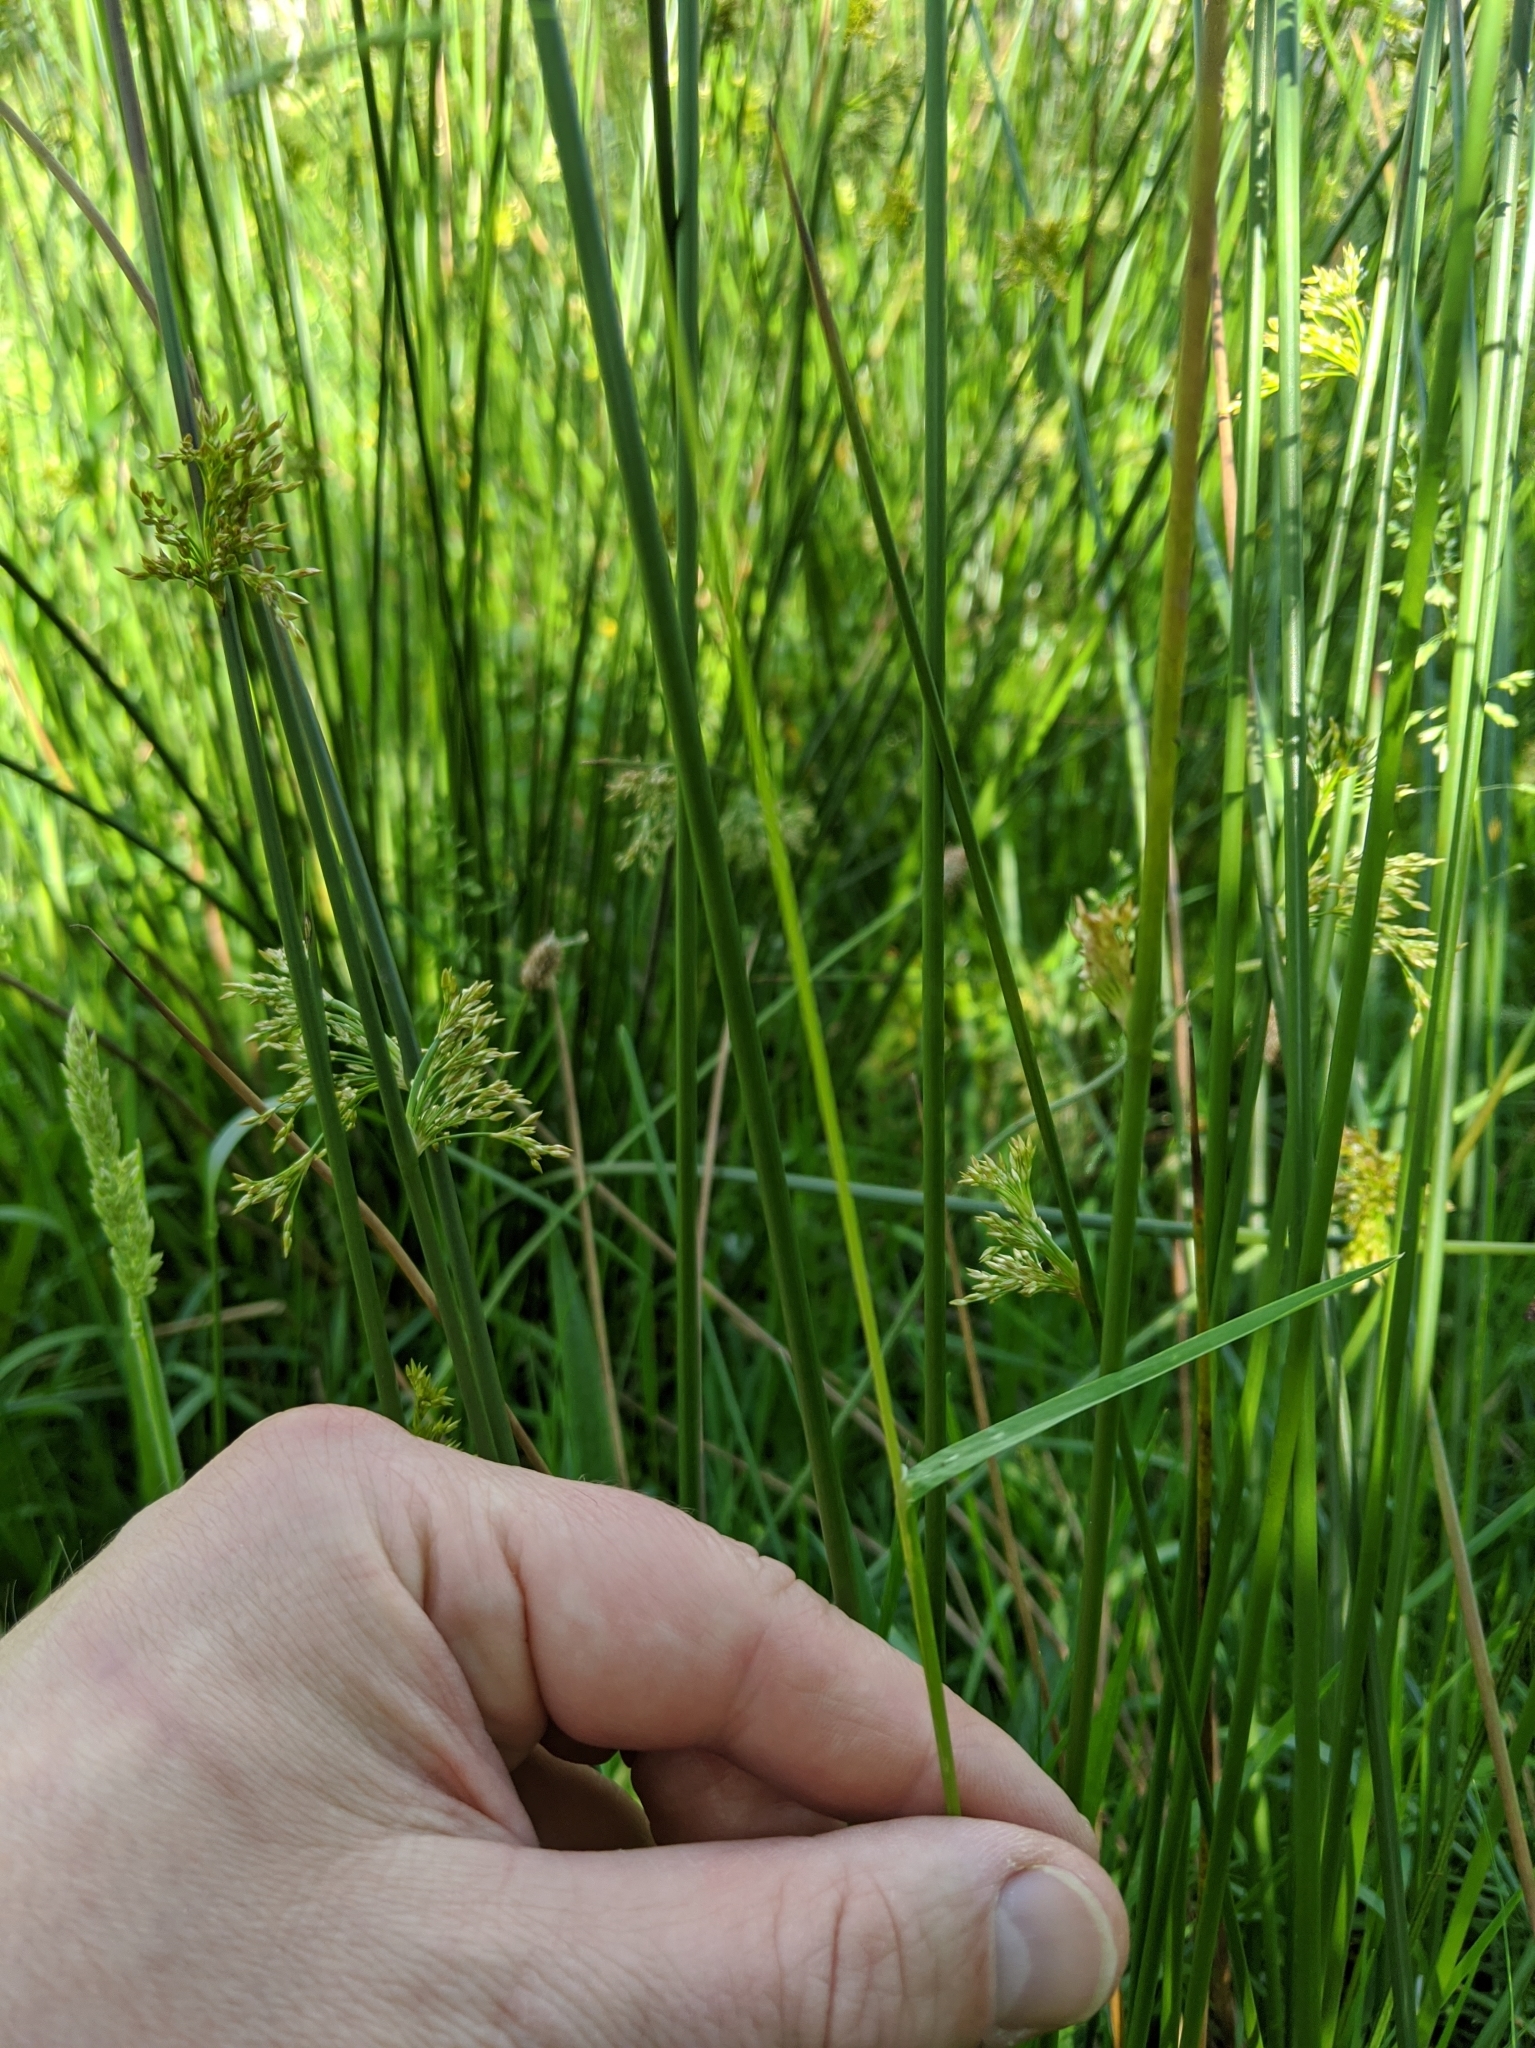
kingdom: Plantae
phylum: Tracheophyta
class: Liliopsida
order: Poales
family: Poaceae
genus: Poa
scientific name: Poa pratensis
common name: Kentucky bluegrass
